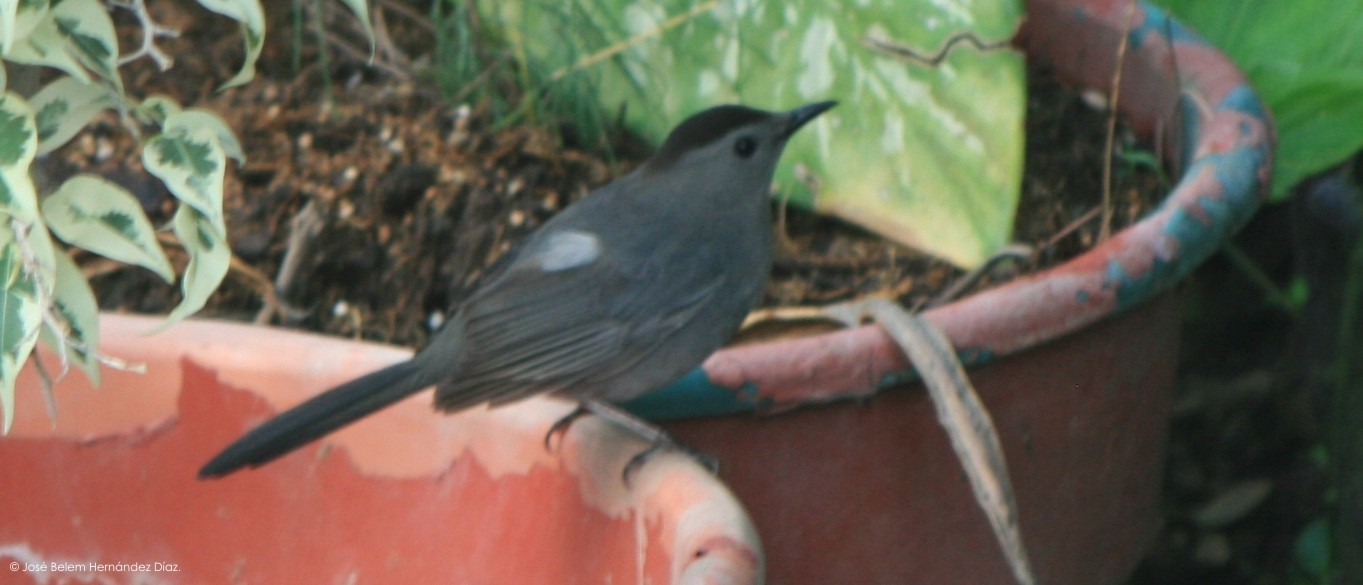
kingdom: Animalia
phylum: Chordata
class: Aves
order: Passeriformes
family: Mimidae
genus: Dumetella
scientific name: Dumetella carolinensis
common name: Gray catbird
